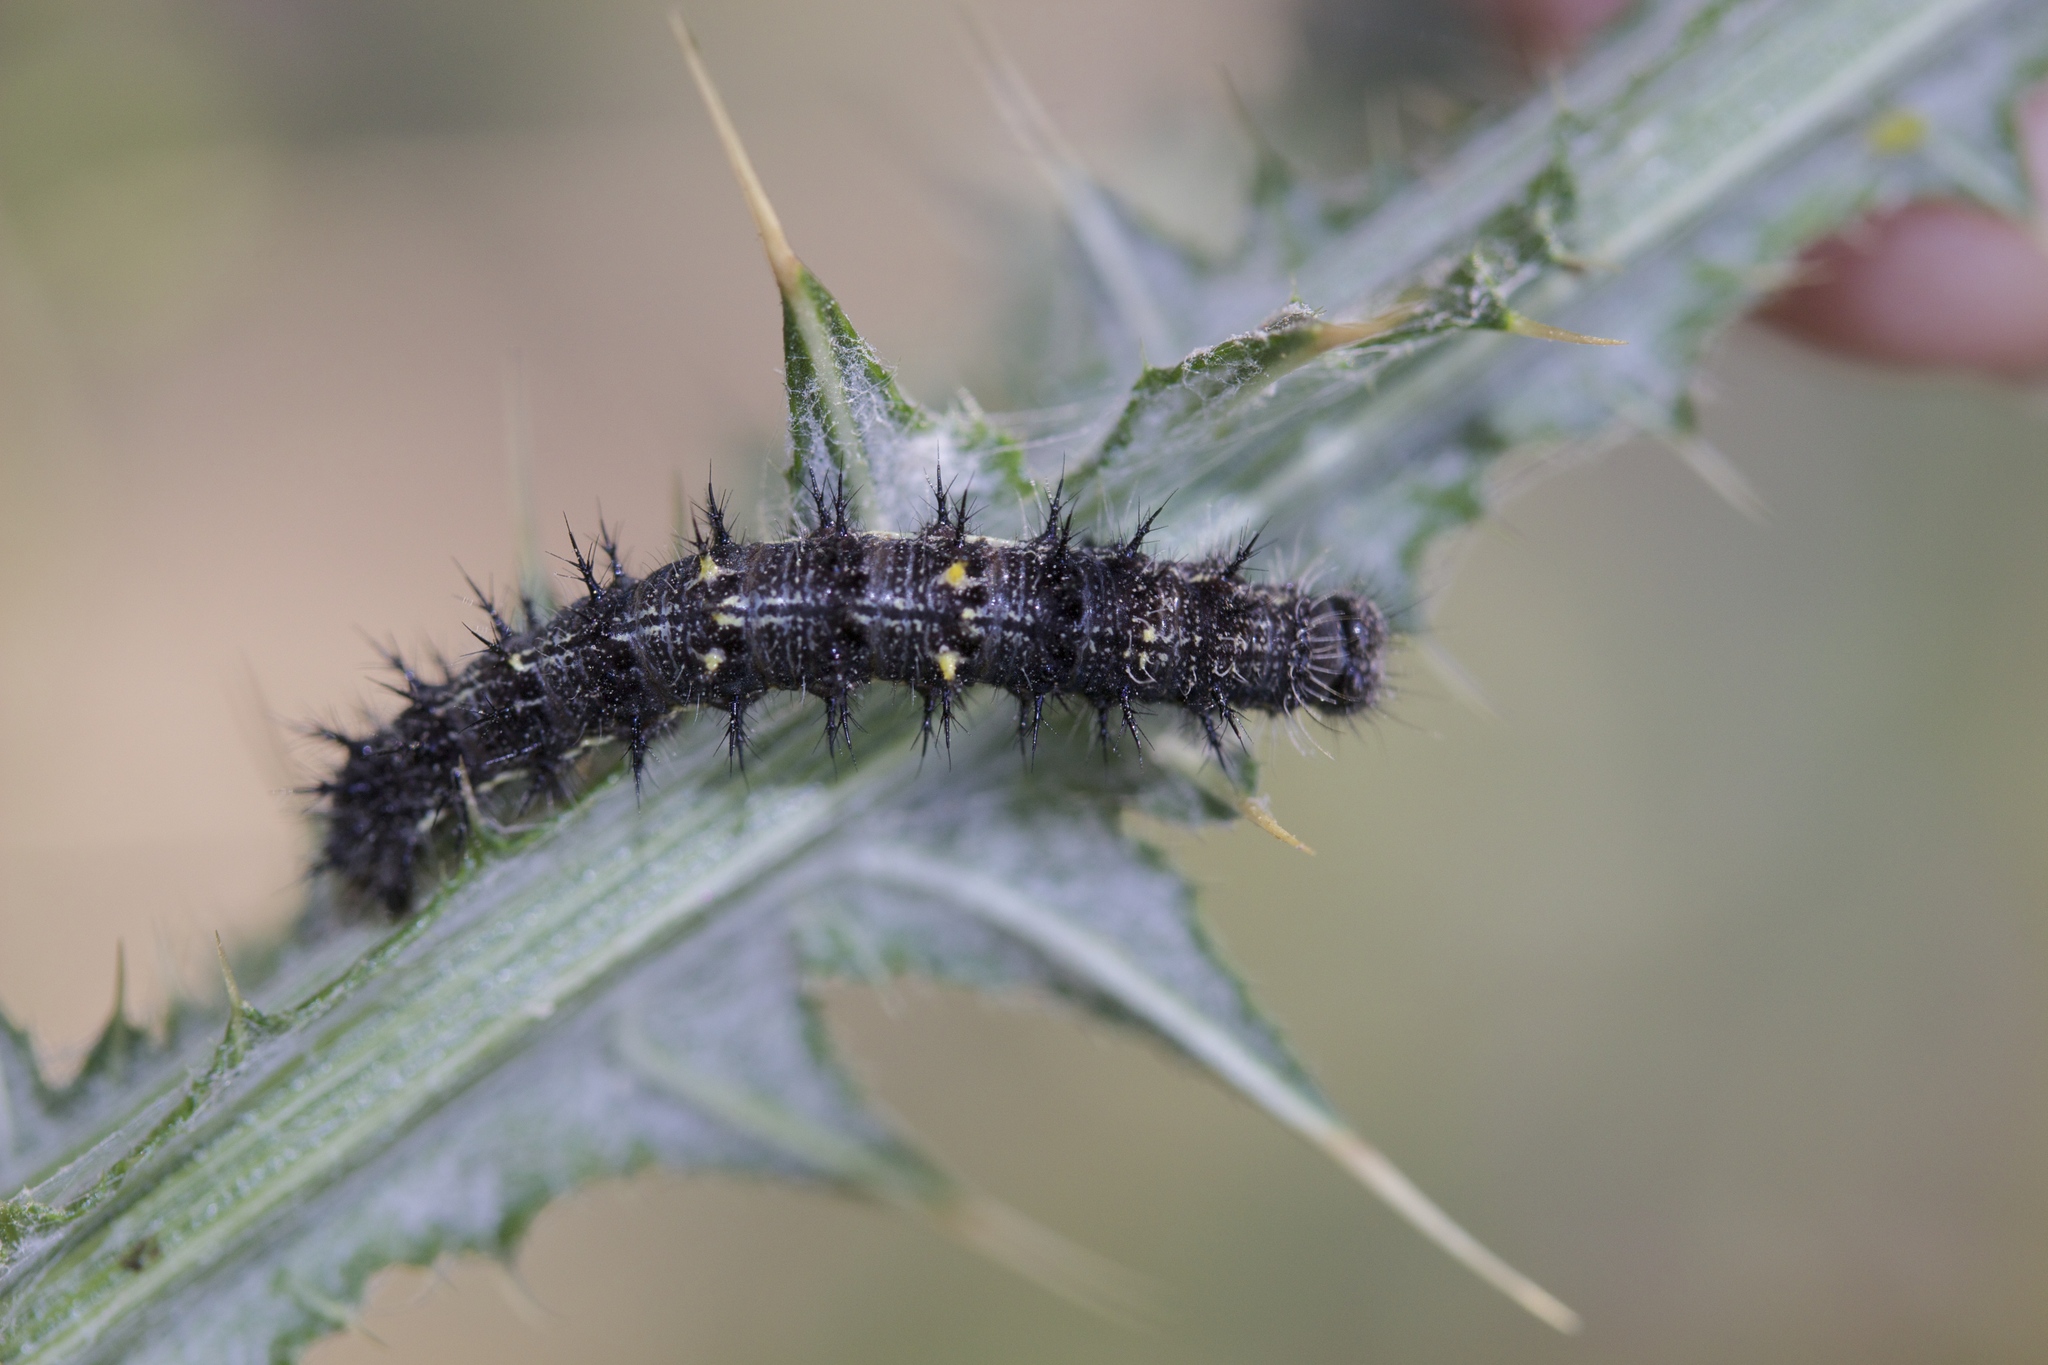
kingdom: Animalia
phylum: Arthropoda
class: Insecta
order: Lepidoptera
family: Nymphalidae
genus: Vanessa
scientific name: Vanessa cardui
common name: Painted lady
